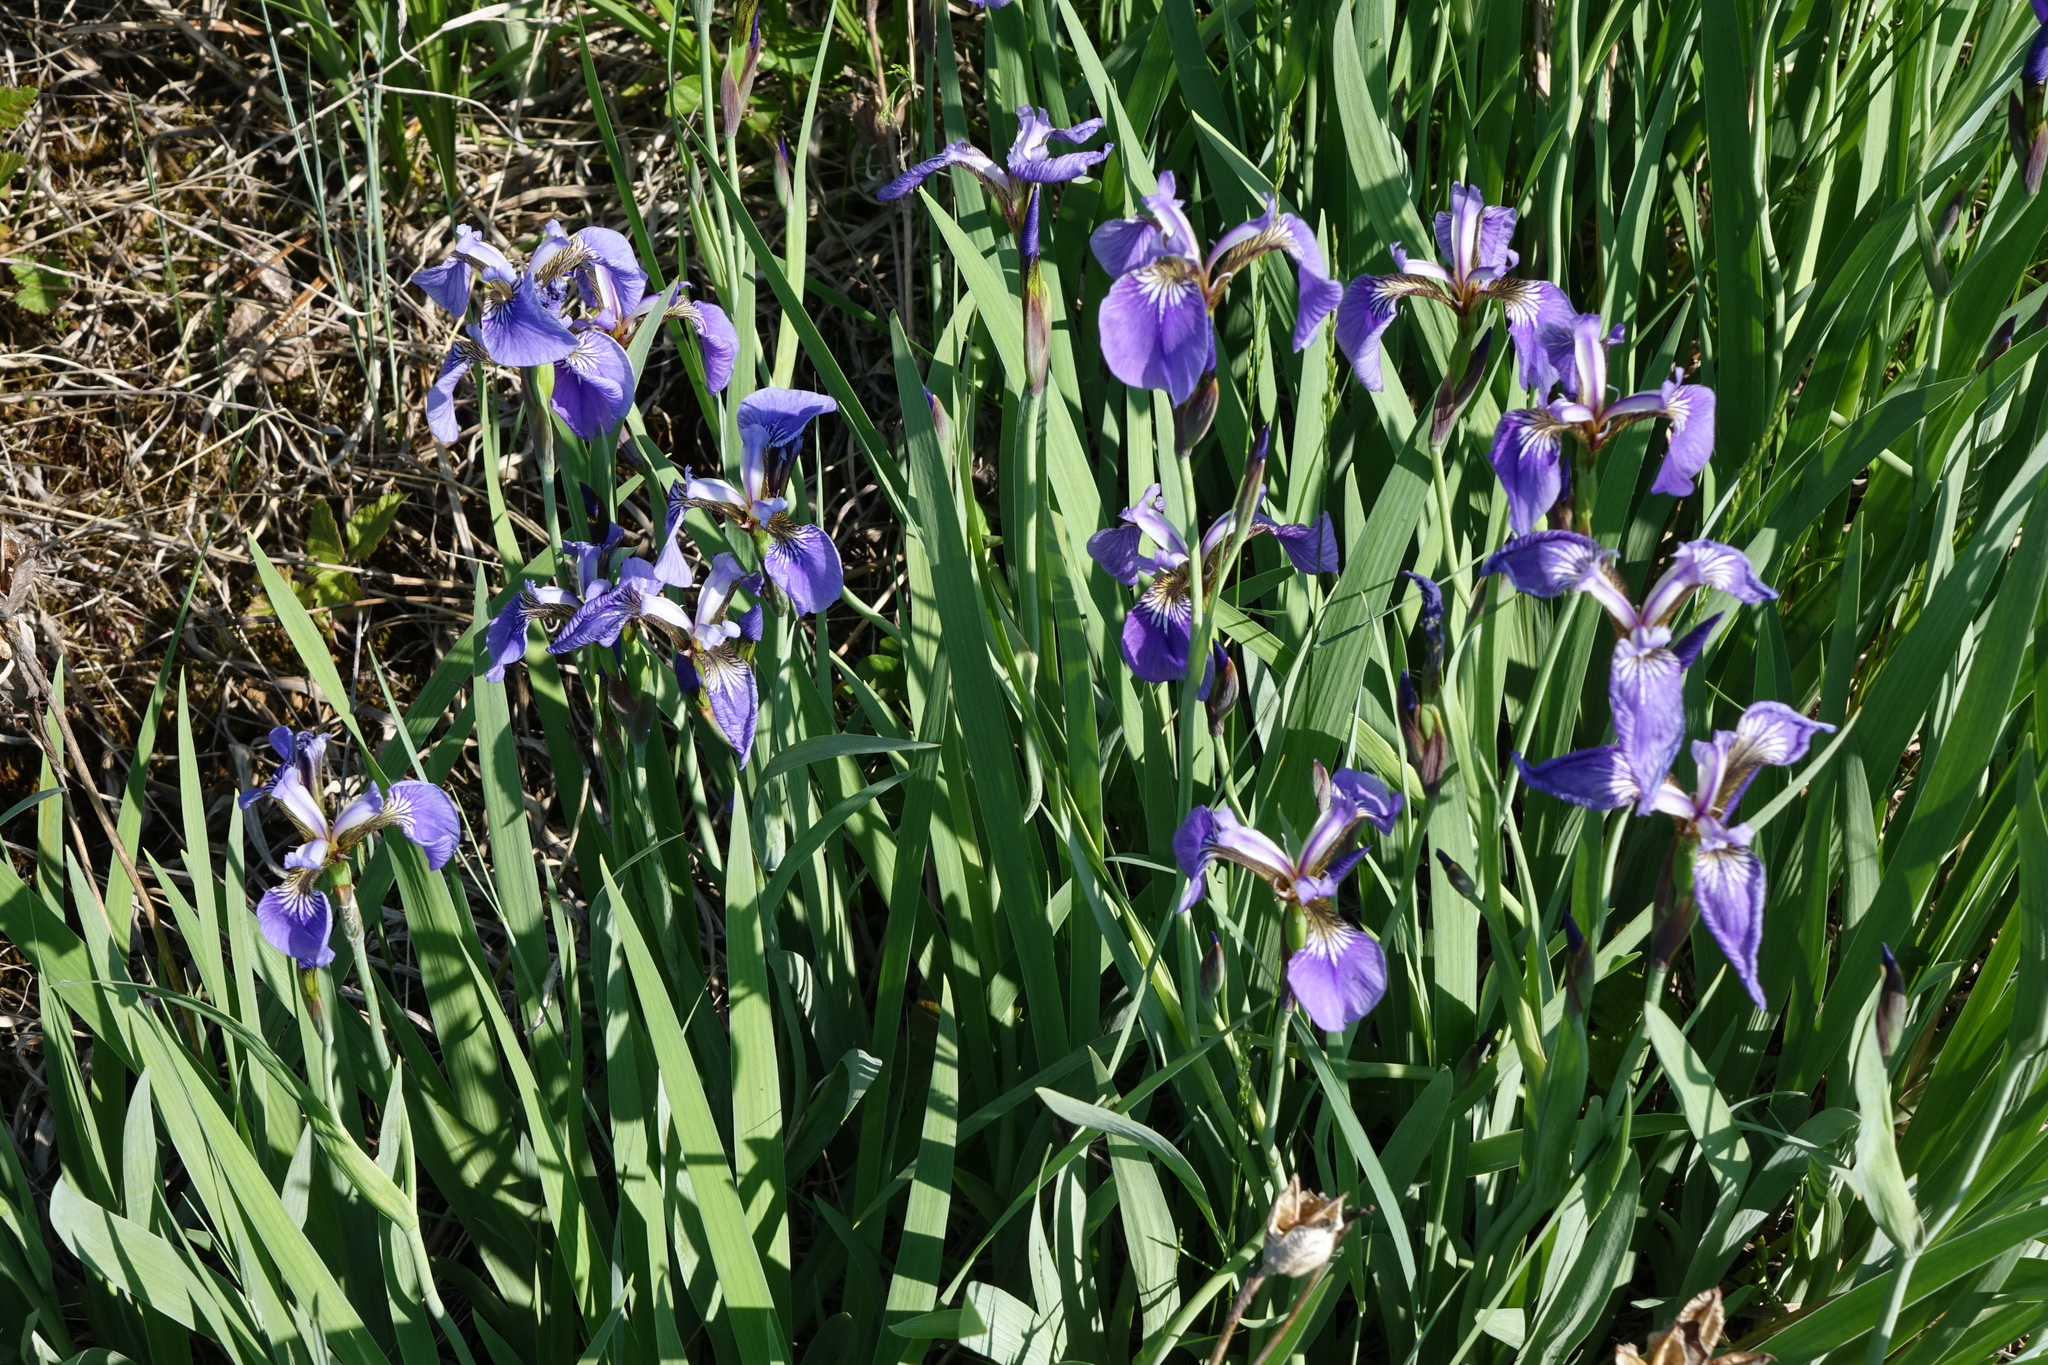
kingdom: Plantae
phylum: Tracheophyta
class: Liliopsida
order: Asparagales
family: Iridaceae
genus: Iris
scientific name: Iris setosa
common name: Arctic blue flag
